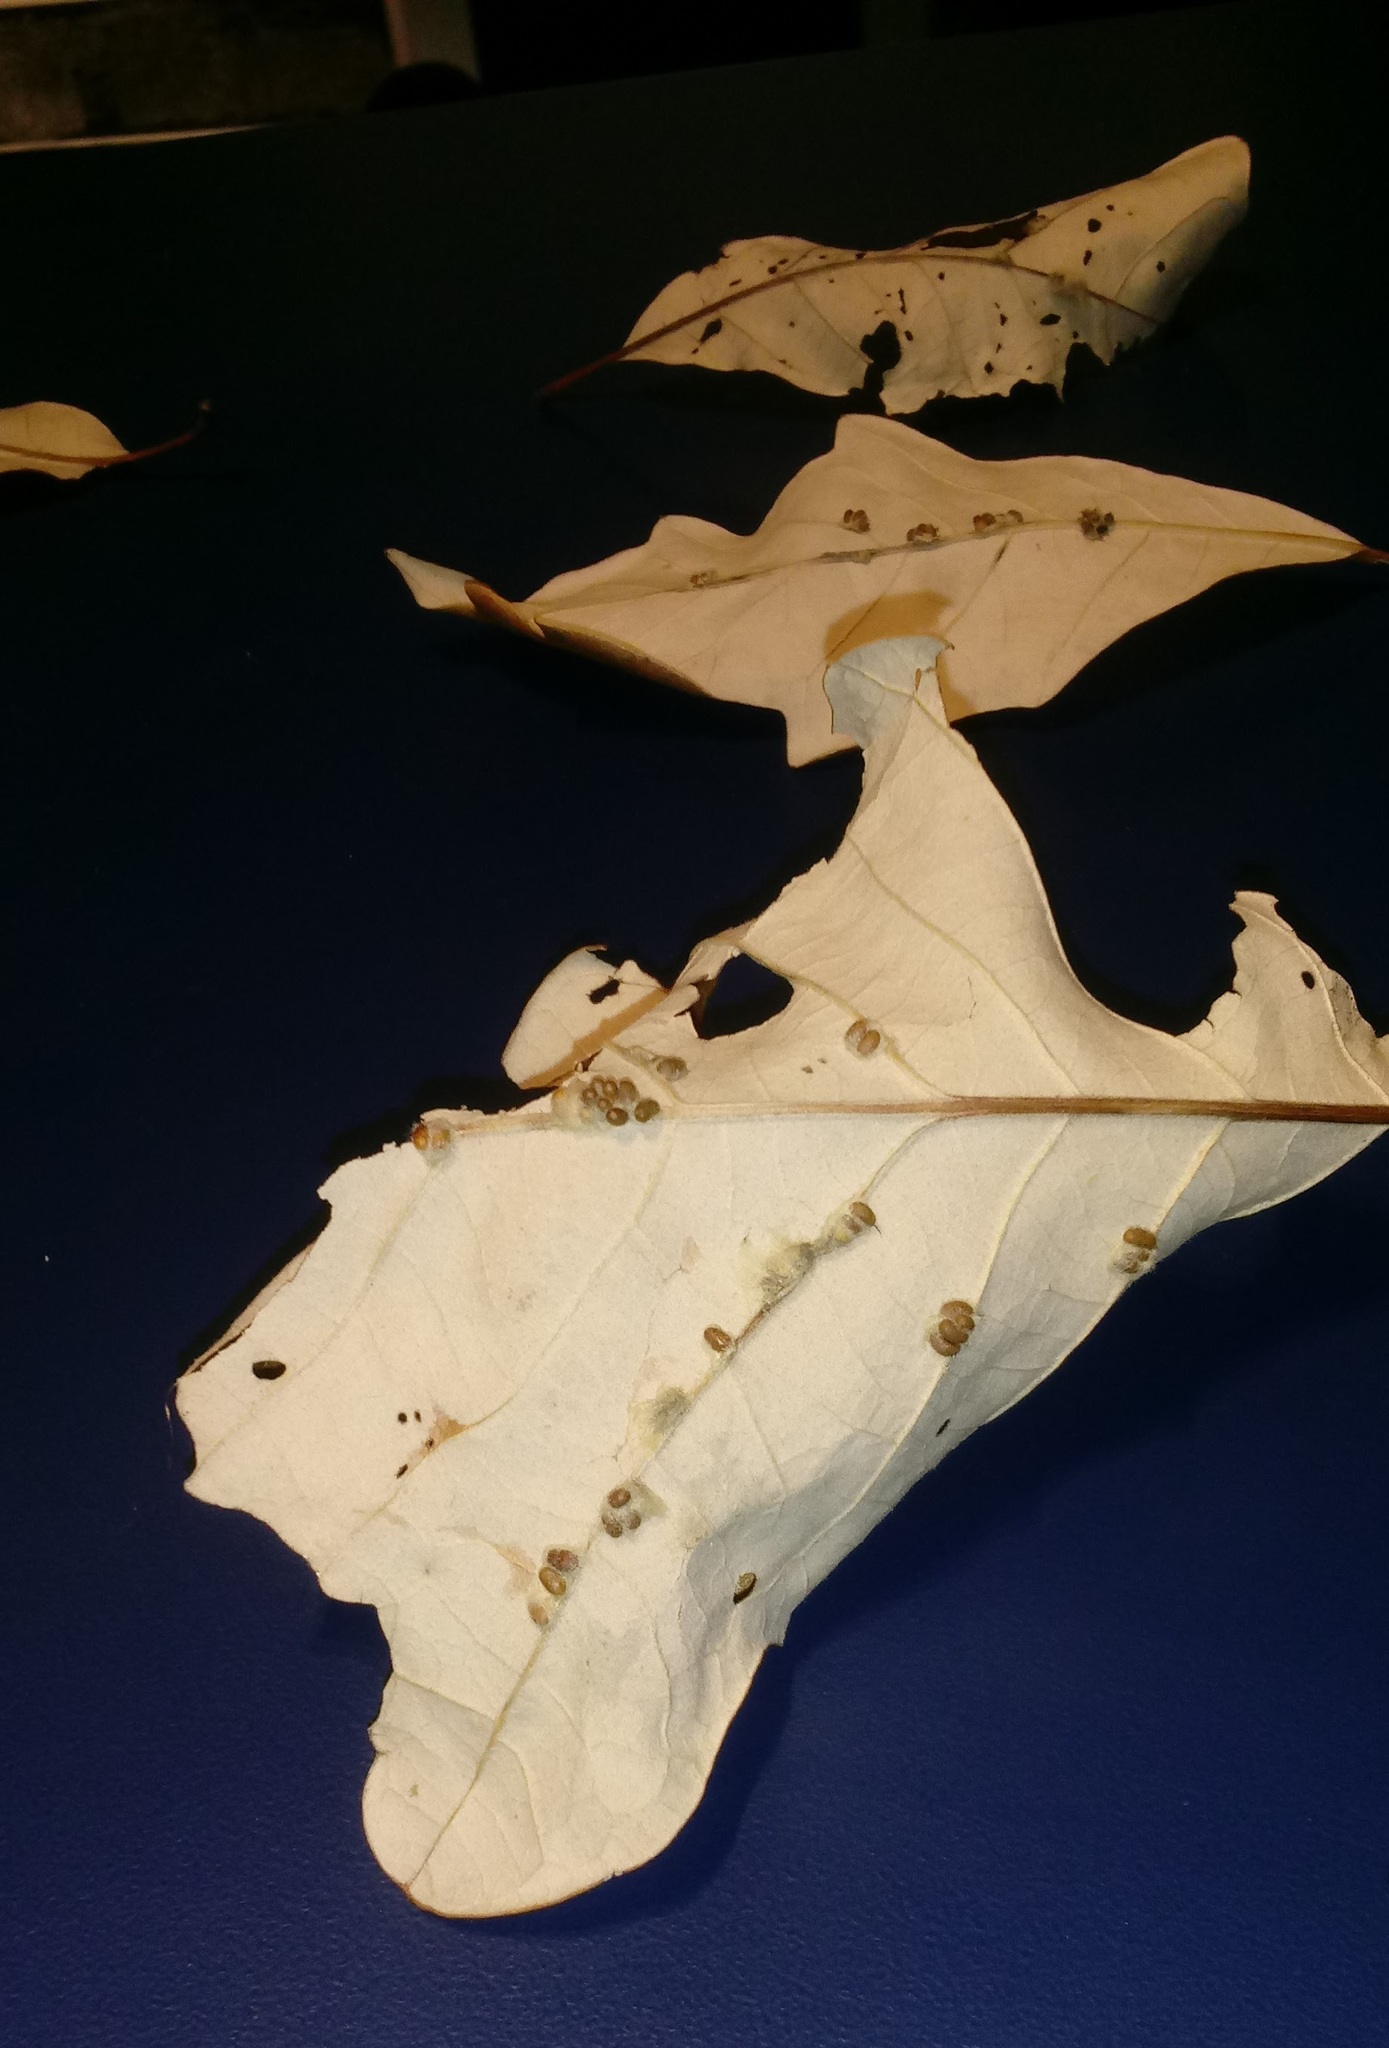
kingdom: Animalia
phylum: Arthropoda
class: Insecta
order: Hymenoptera
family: Cynipidae
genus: Andricus
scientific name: Andricus Druon ignotum
